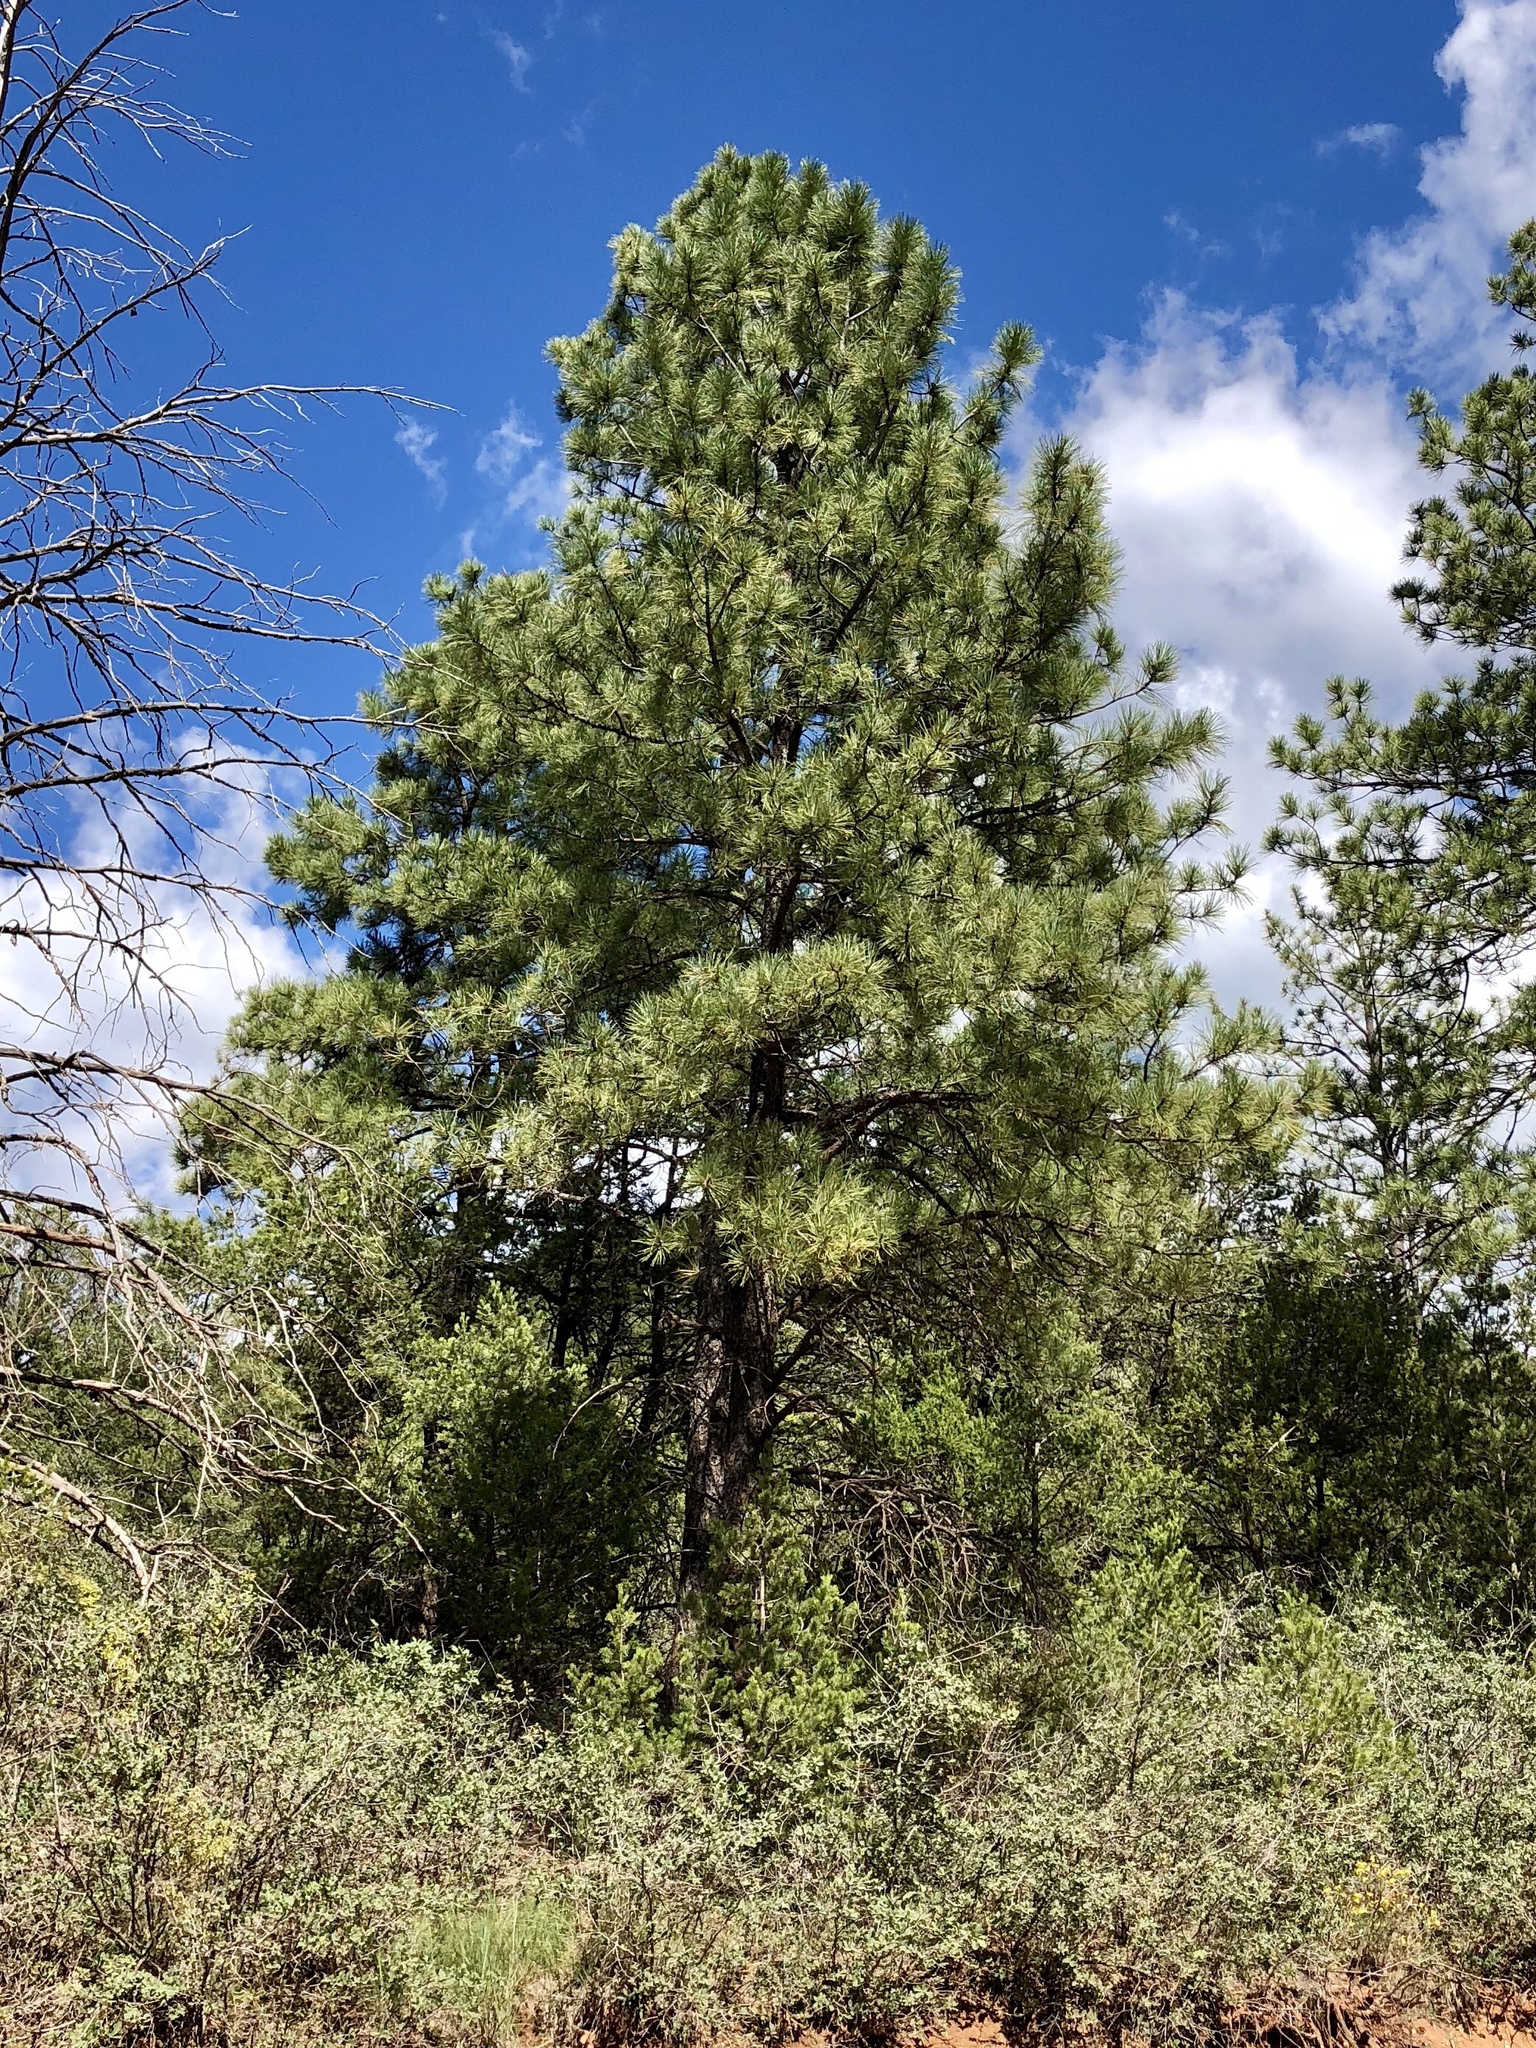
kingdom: Plantae
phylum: Tracheophyta
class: Pinopsida
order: Pinales
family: Pinaceae
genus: Pinus
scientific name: Pinus ponderosa
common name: Western yellow-pine
